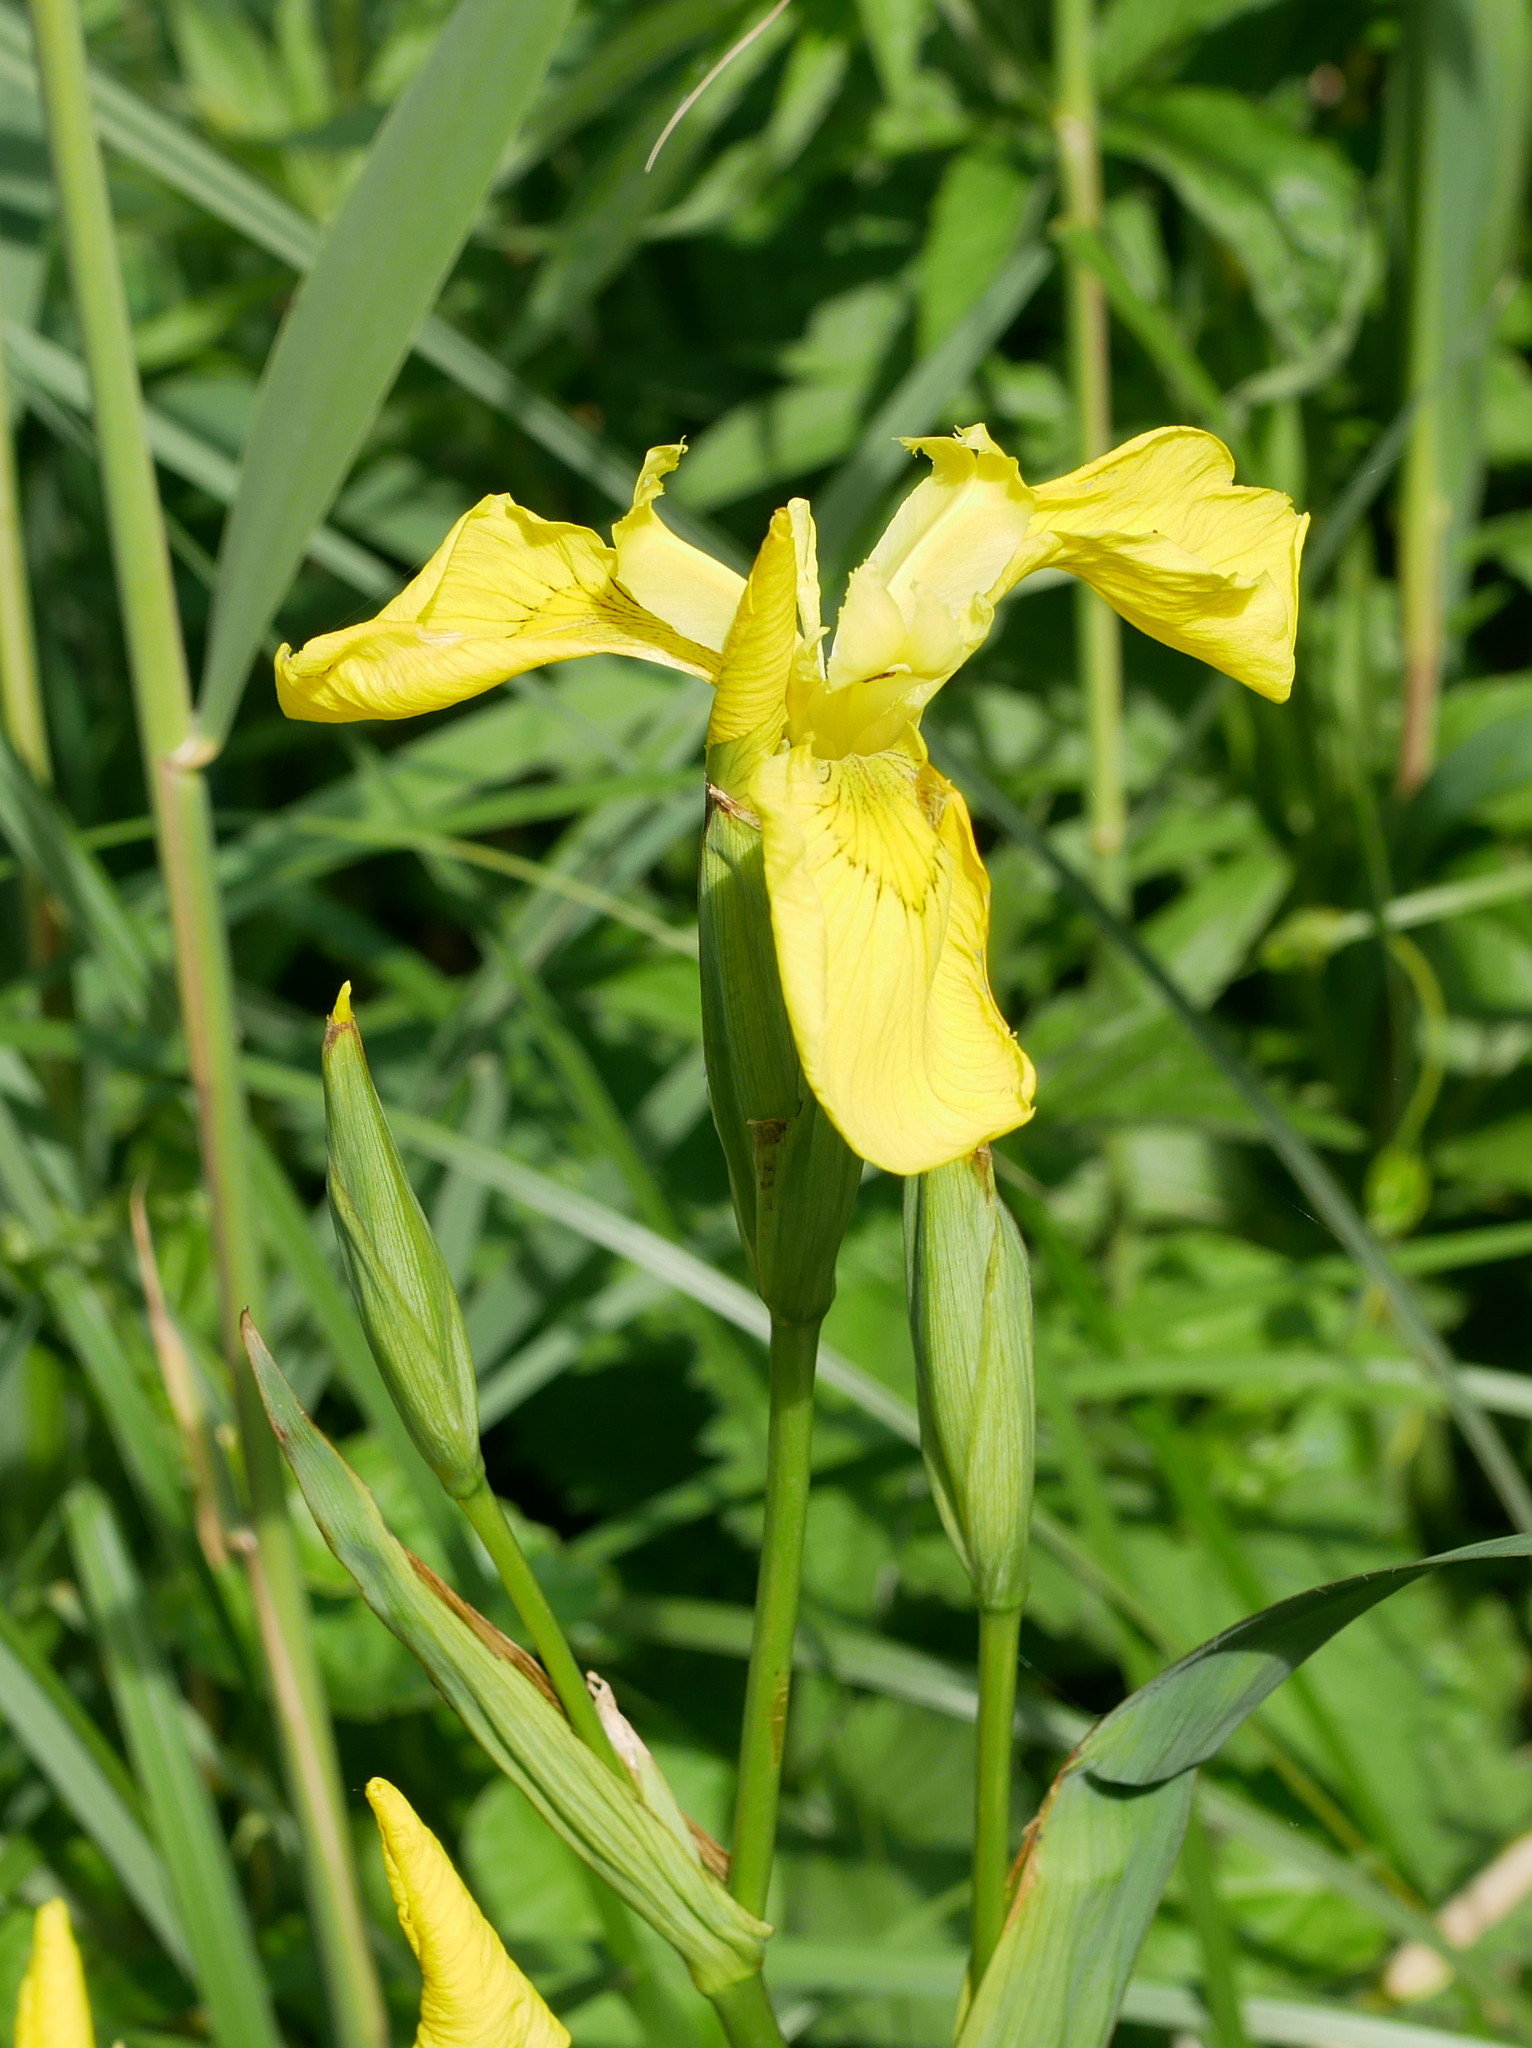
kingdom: Plantae
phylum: Tracheophyta
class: Liliopsida
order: Asparagales
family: Iridaceae
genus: Iris
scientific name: Iris pseudacorus
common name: Yellow flag
